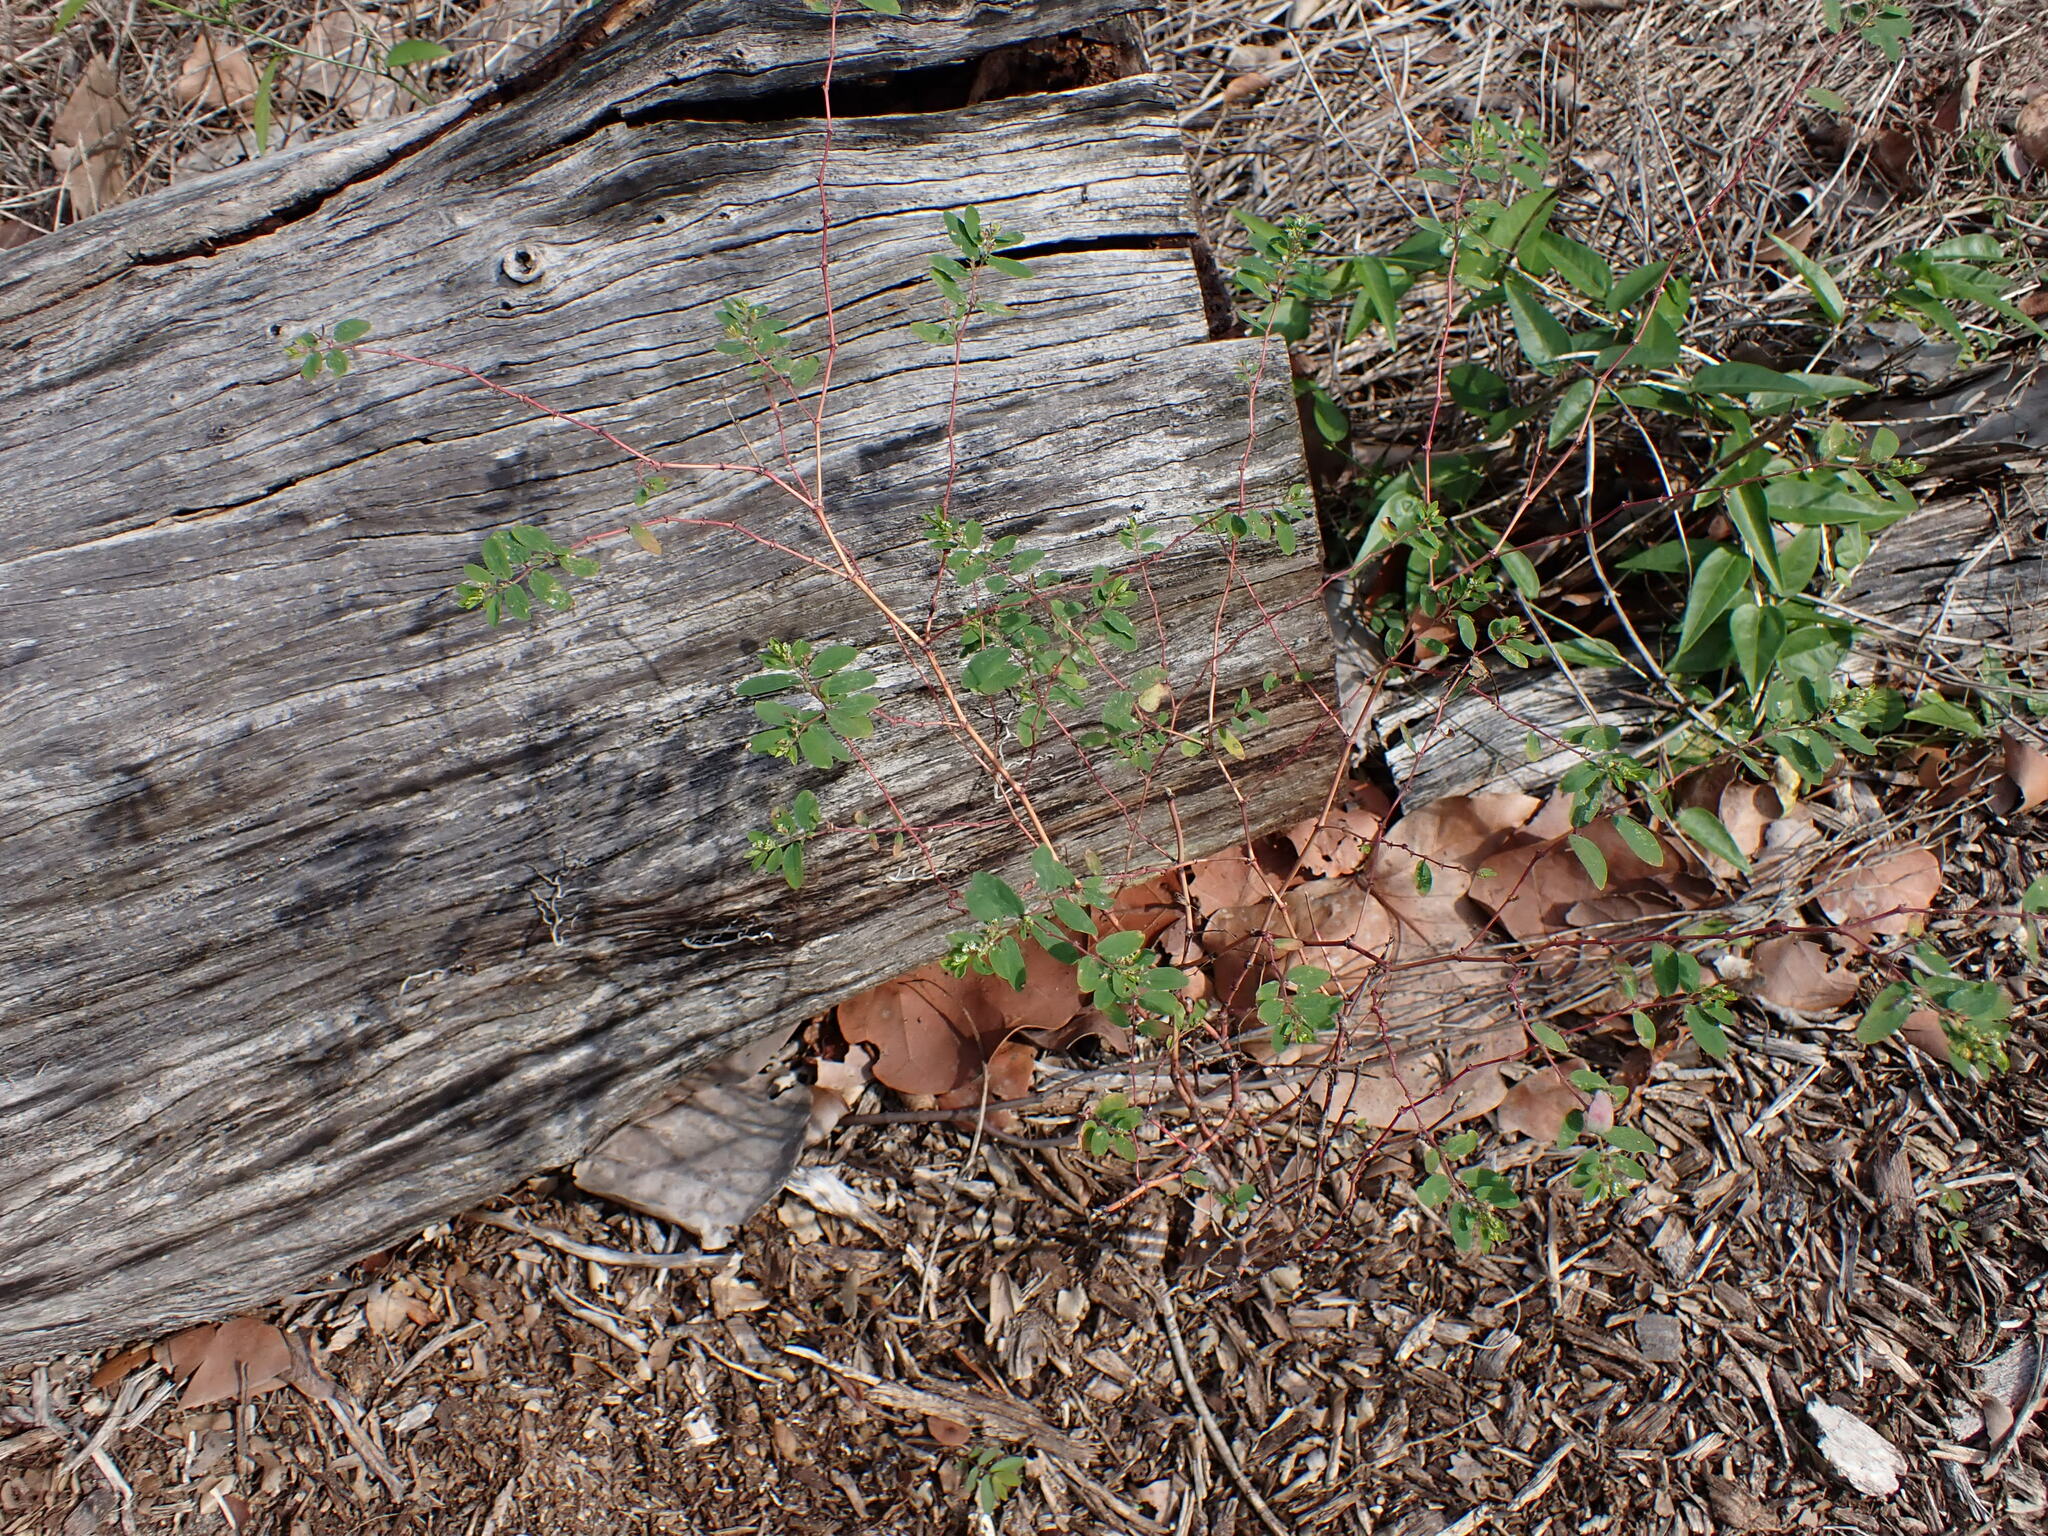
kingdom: Plantae
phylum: Tracheophyta
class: Magnoliopsida
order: Malpighiales
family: Euphorbiaceae
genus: Euphorbia
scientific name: Euphorbia hypericifolia
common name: Graceful sandmat
